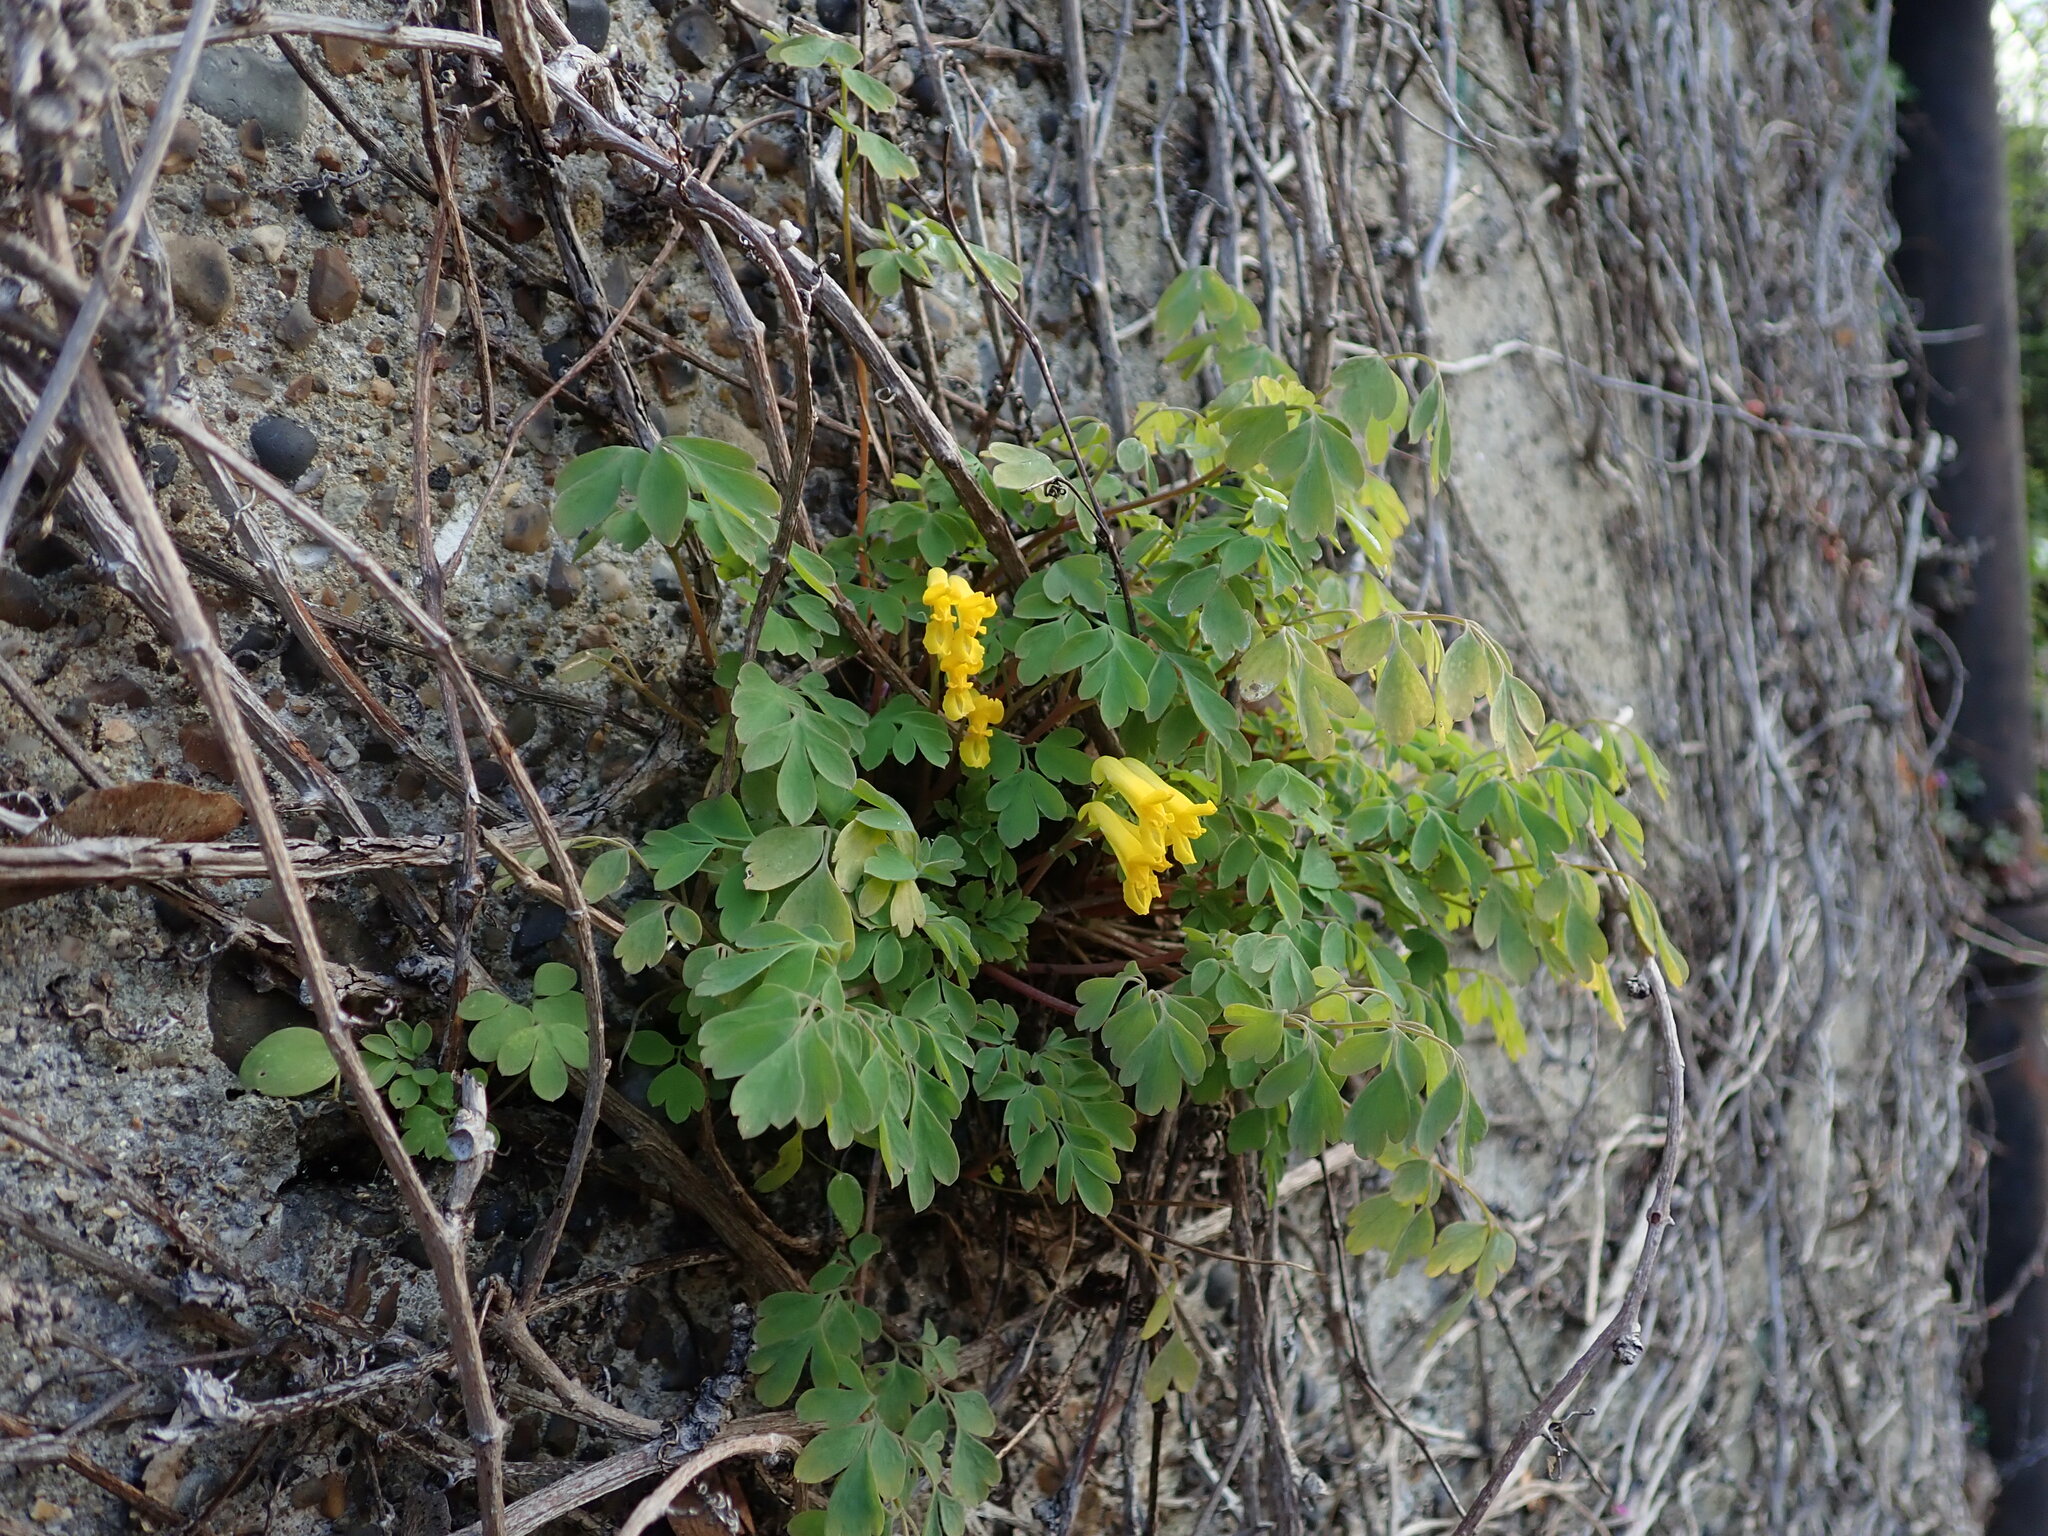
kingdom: Plantae
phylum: Tracheophyta
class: Magnoliopsida
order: Ranunculales
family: Papaveraceae
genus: Pseudofumaria
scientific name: Pseudofumaria lutea
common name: Yellow corydalis
